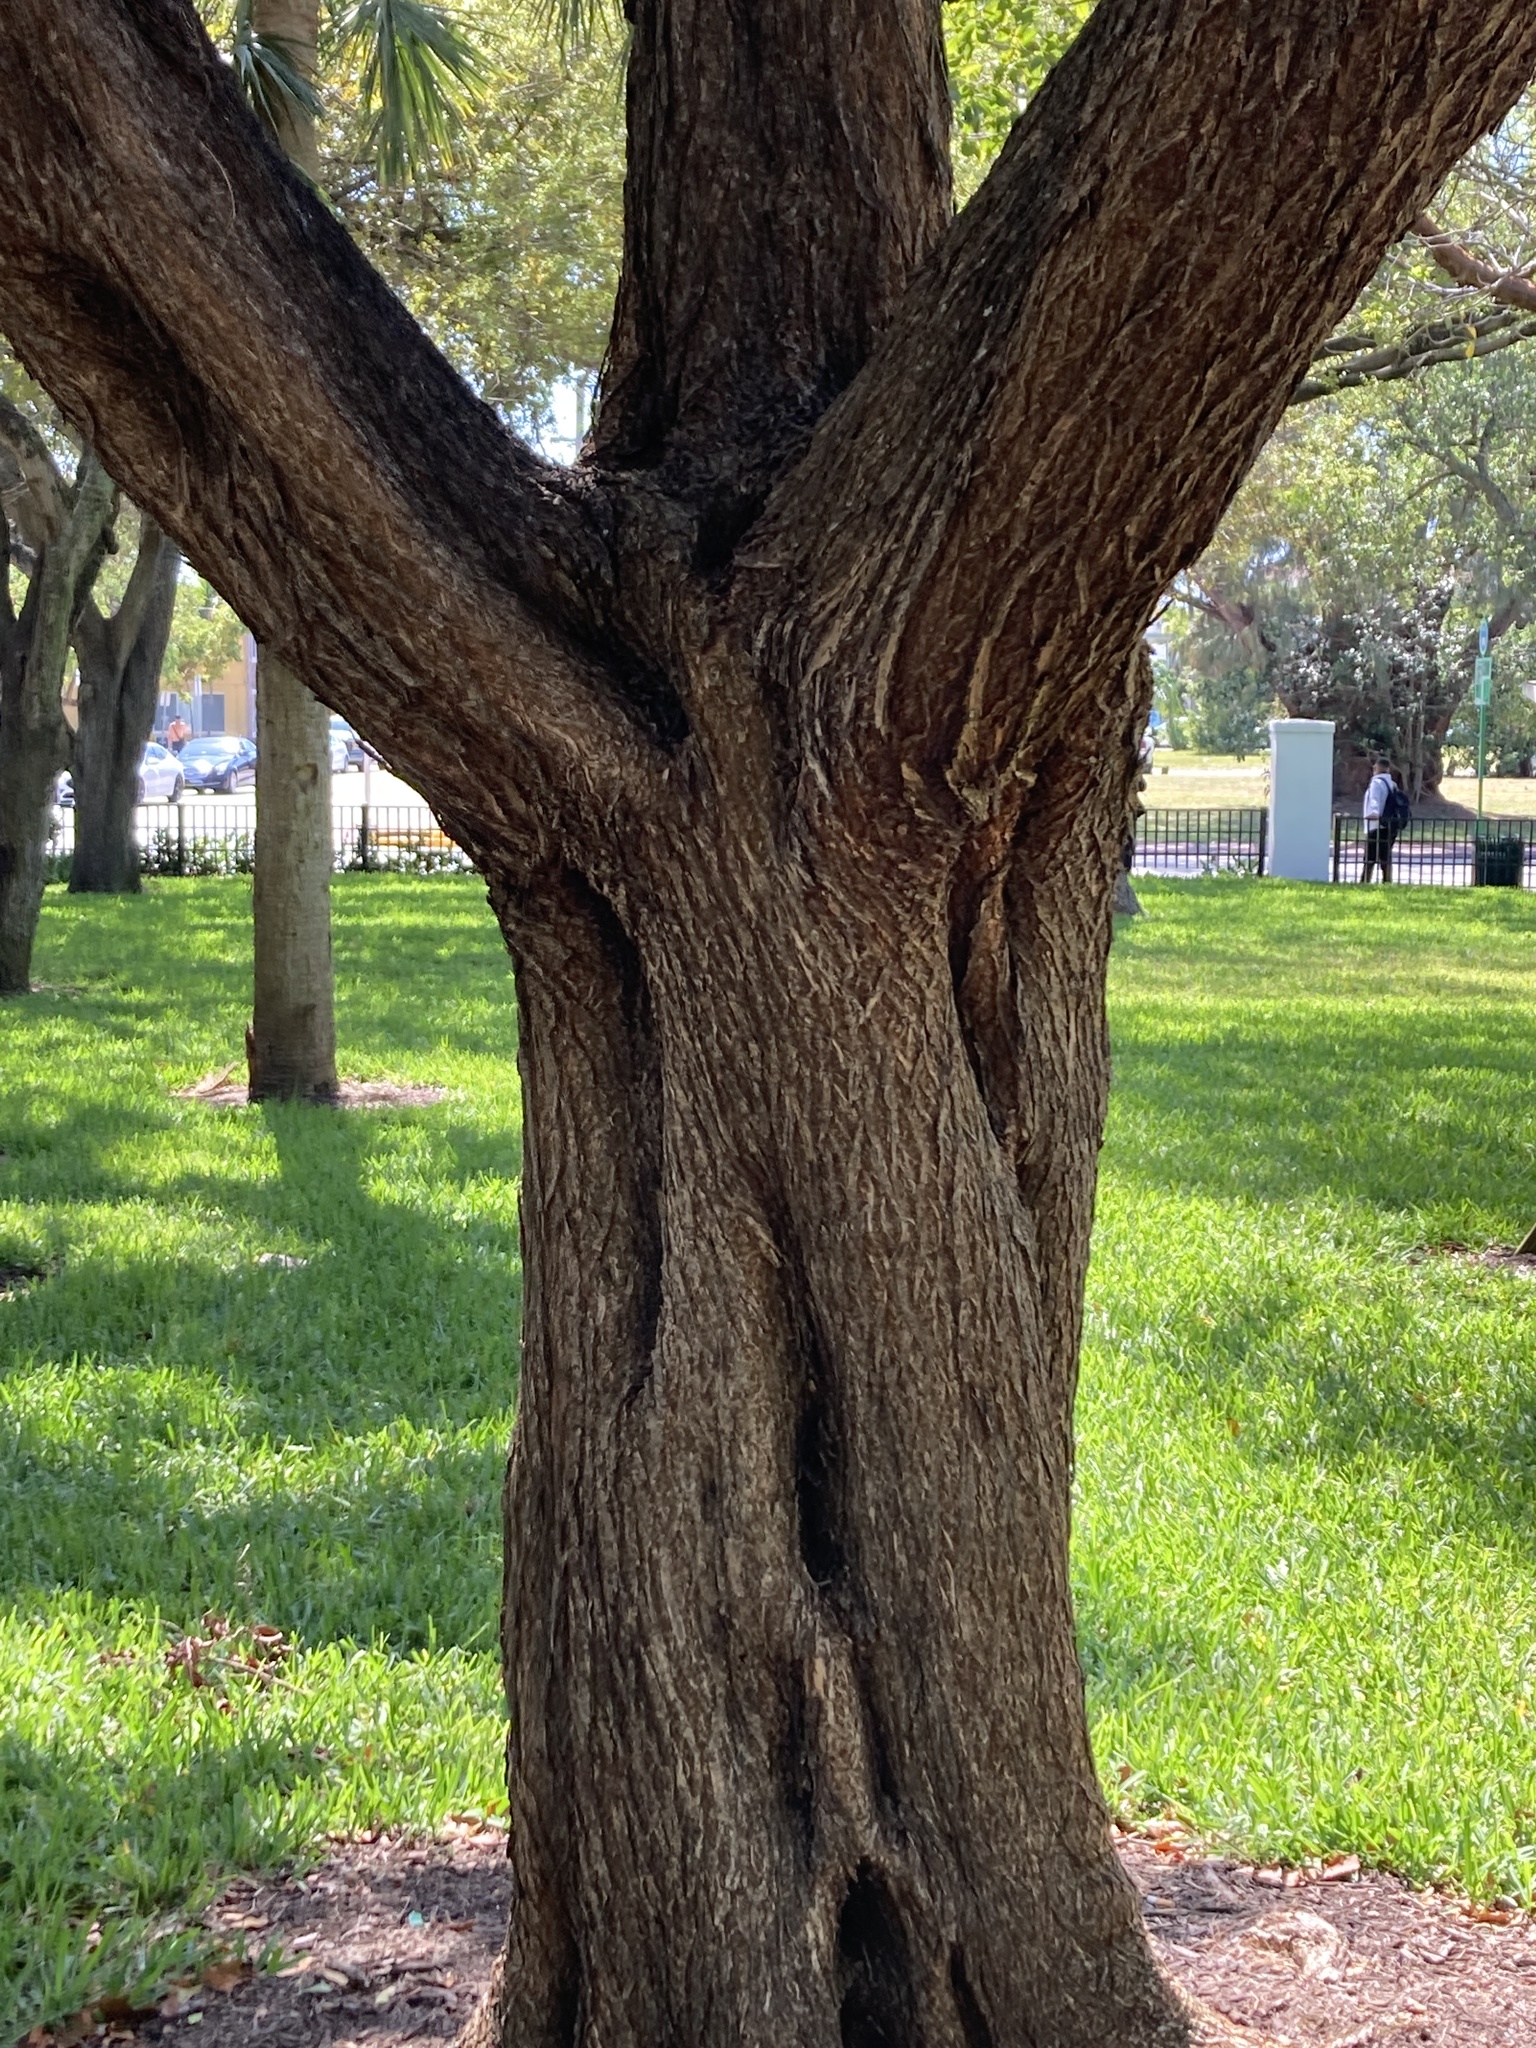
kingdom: Plantae
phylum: Tracheophyta
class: Magnoliopsida
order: Myrtales
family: Combretaceae
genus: Conocarpus
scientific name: Conocarpus erectus
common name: Button mangrove
